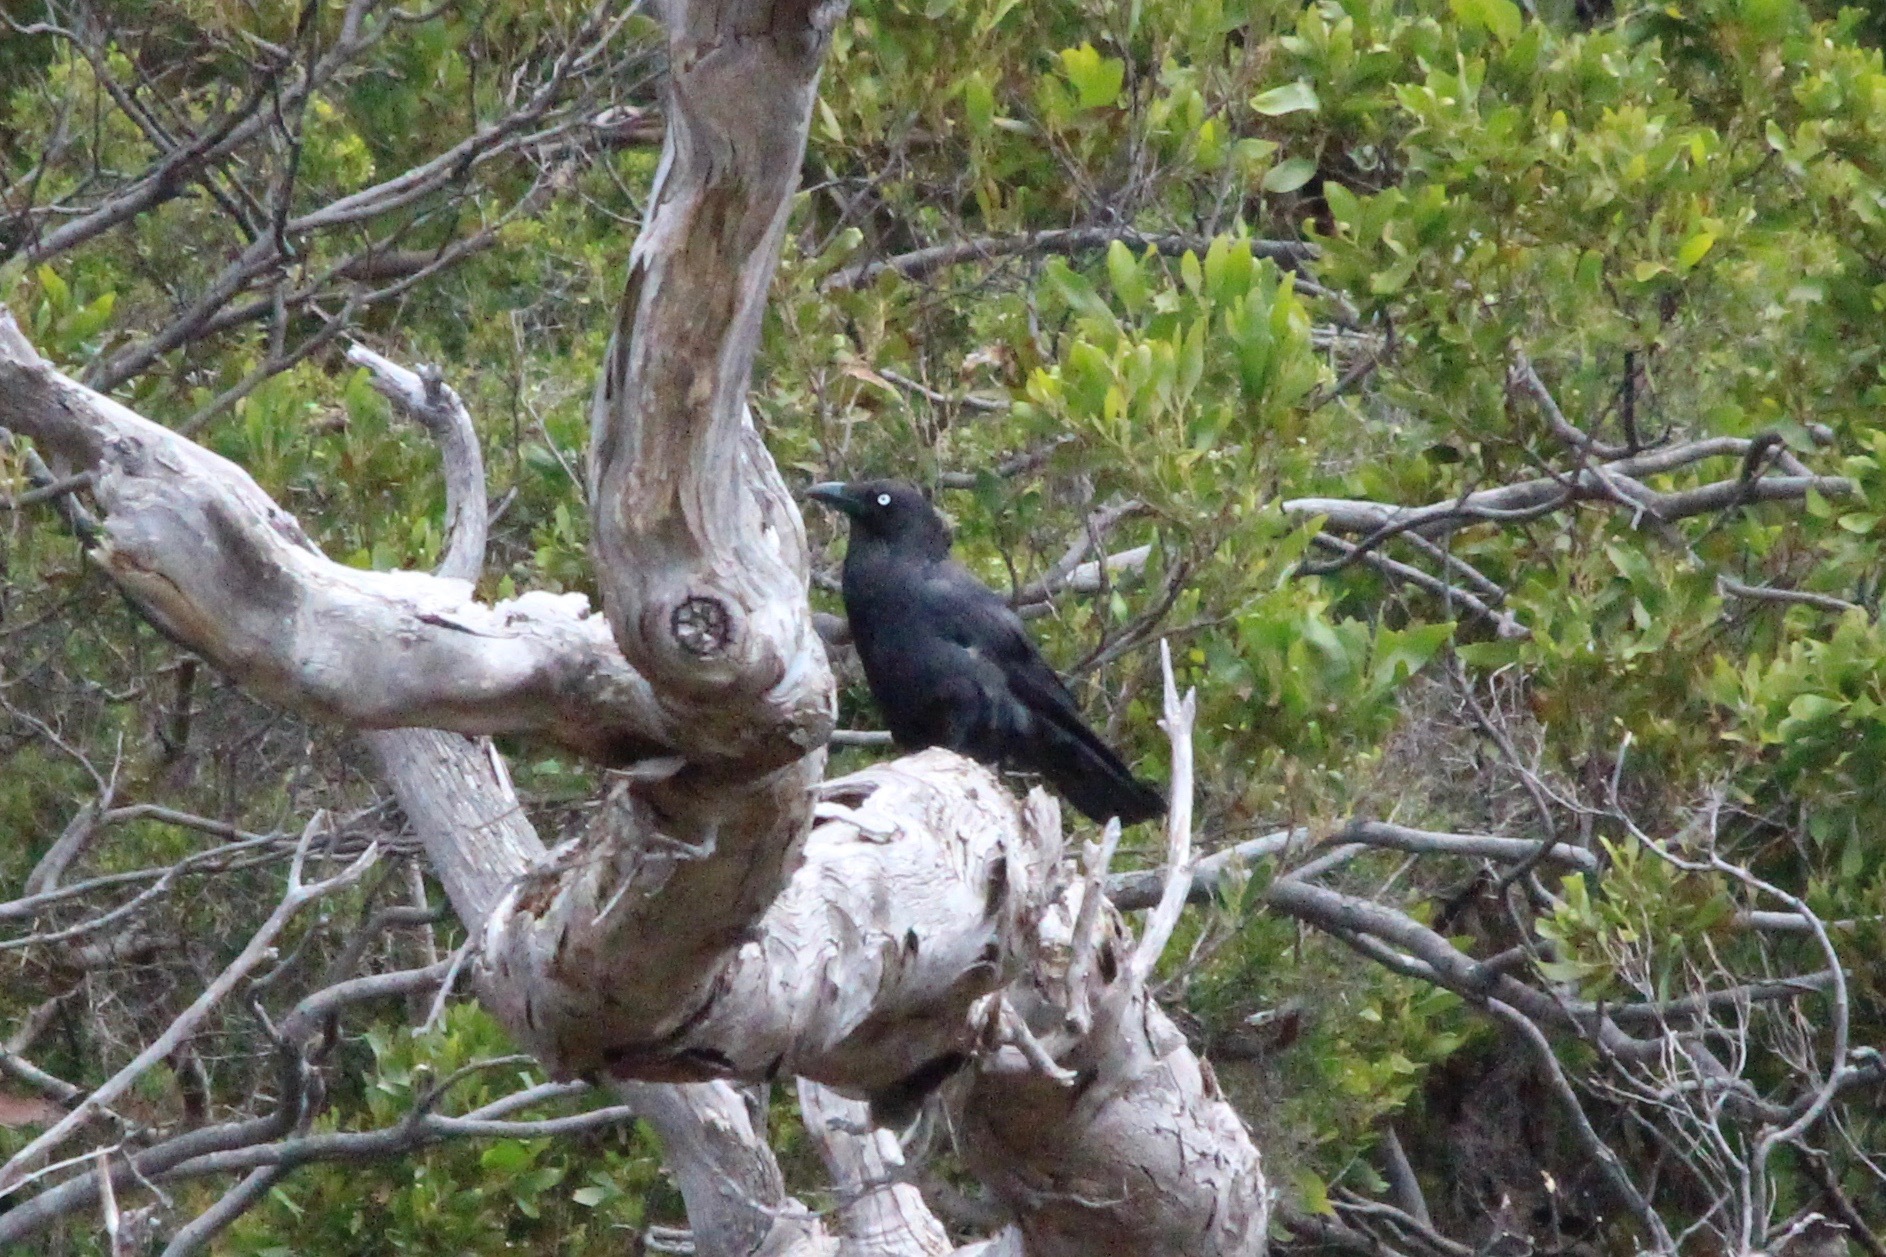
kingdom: Animalia
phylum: Chordata
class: Aves
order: Passeriformes
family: Corvidae
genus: Corvus
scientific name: Corvus tasmanicus
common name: Forest raven
